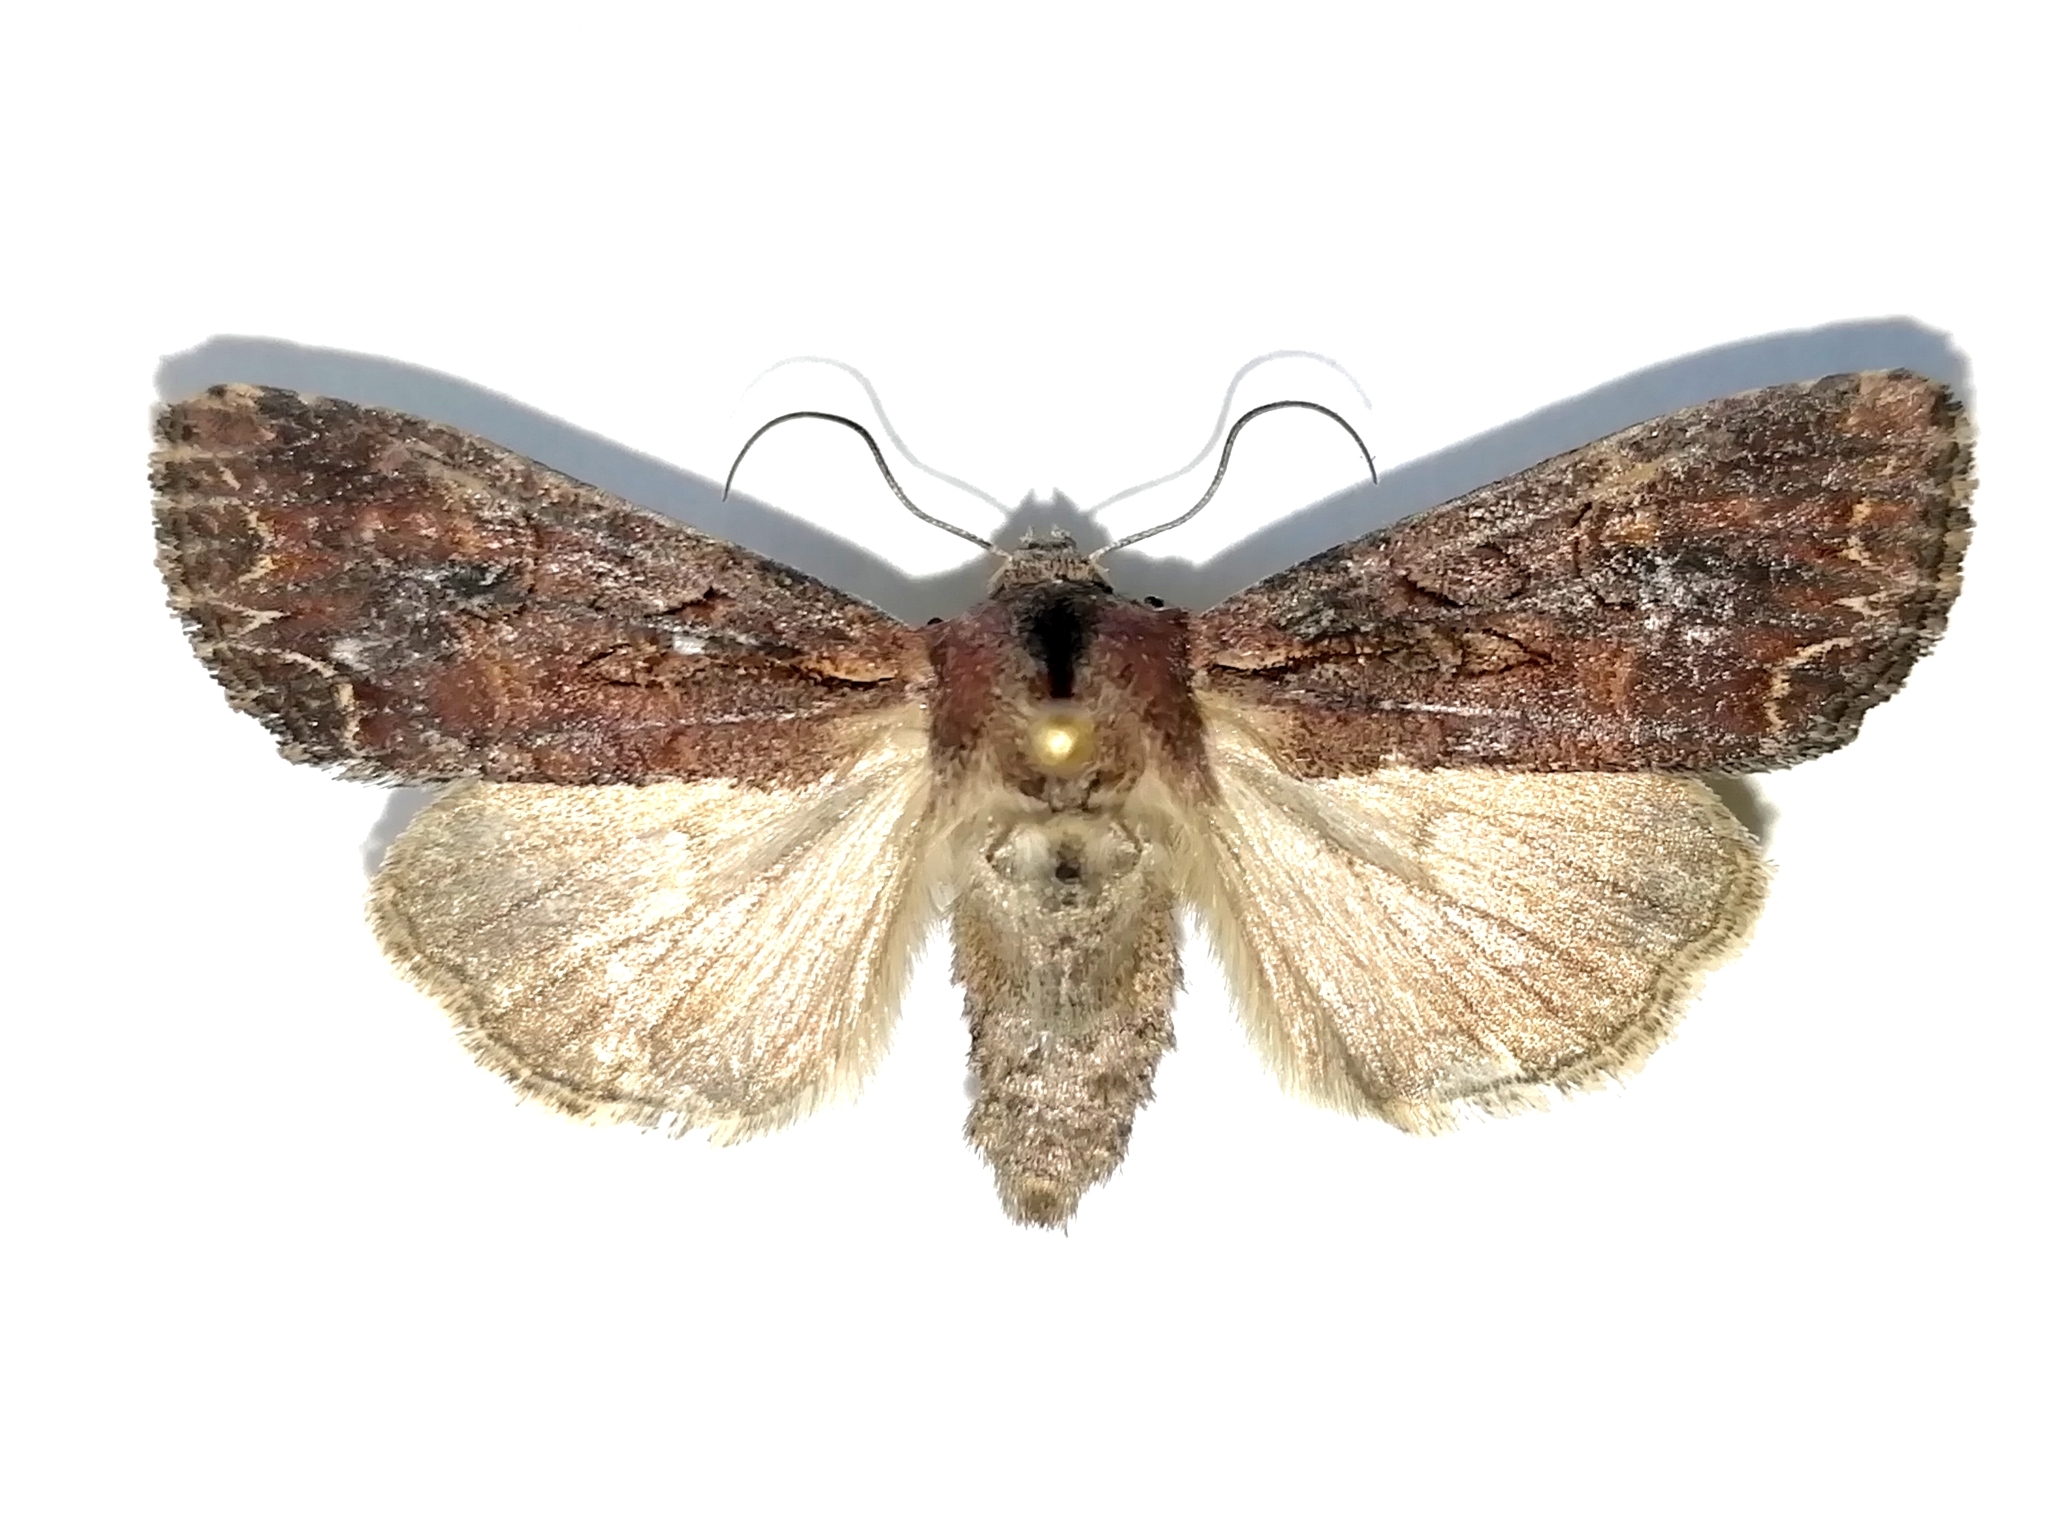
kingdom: Animalia
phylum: Arthropoda
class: Insecta
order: Lepidoptera
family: Noctuidae
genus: Lacanobia
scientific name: Lacanobia suasa
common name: Dog's tooth
